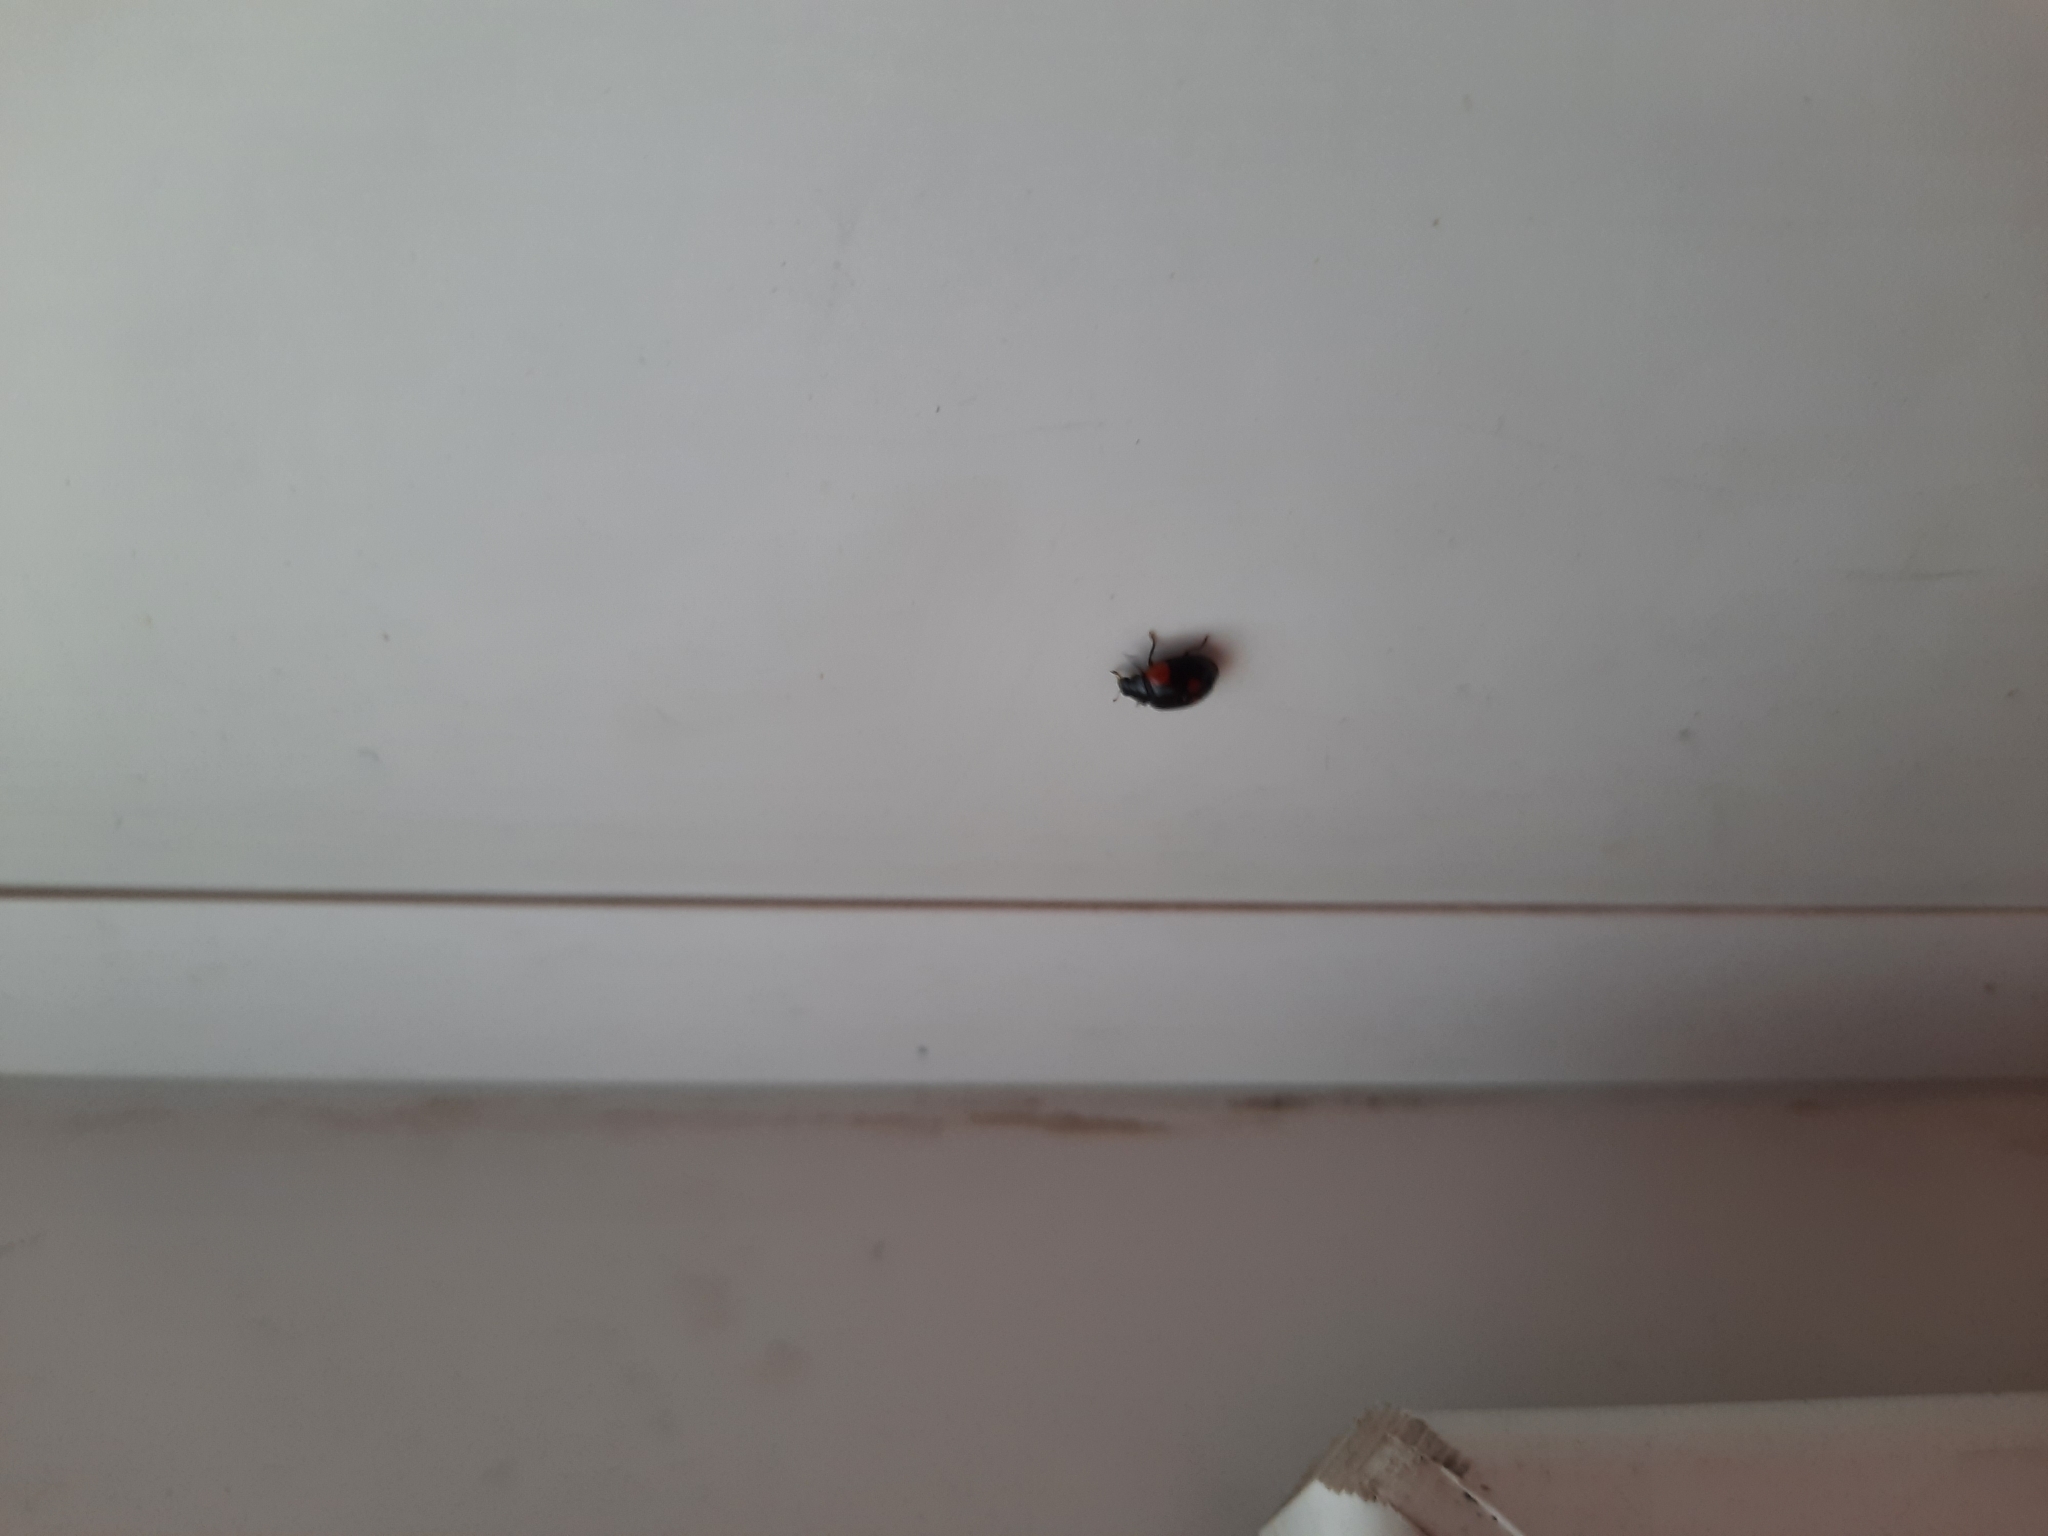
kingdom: Animalia
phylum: Arthropoda
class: Insecta
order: Coleoptera
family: Coccinellidae
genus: Adalia
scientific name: Adalia bipunctata
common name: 2-spot ladybird
